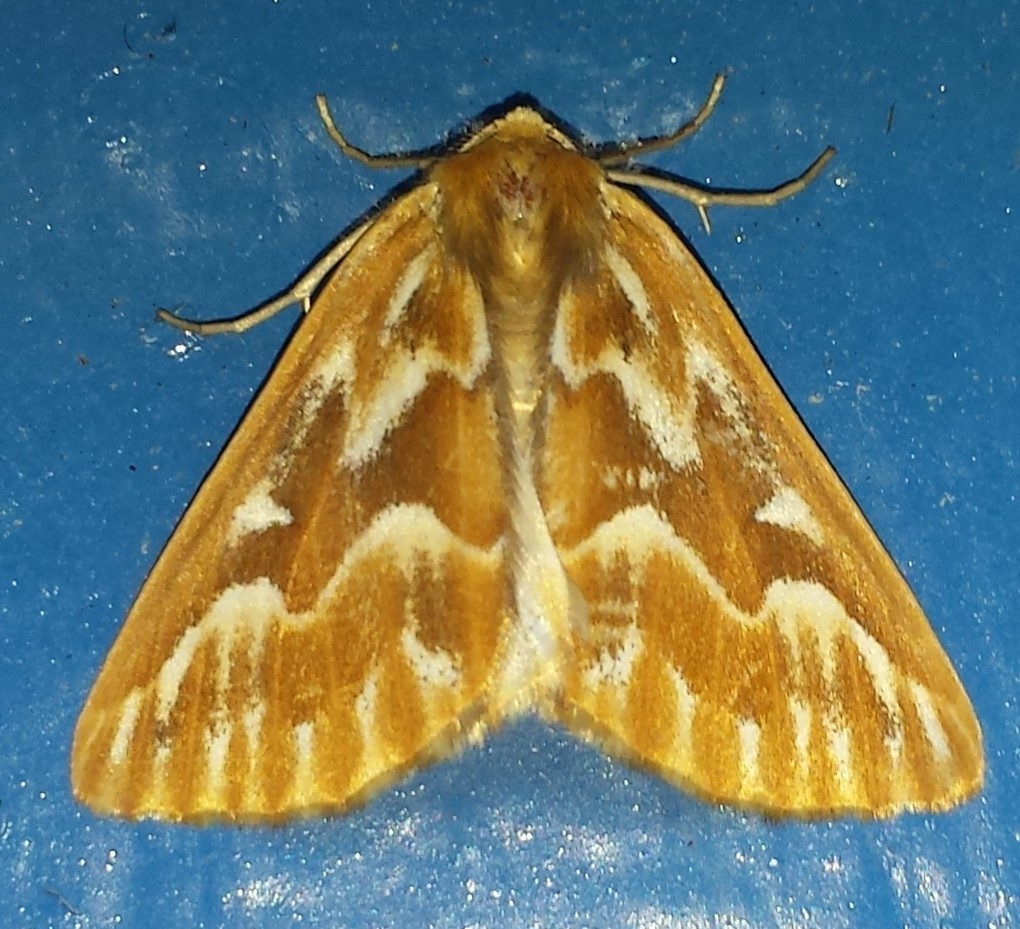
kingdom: Animalia
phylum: Arthropoda
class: Insecta
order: Lepidoptera
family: Geometridae
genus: Caripeta
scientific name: Caripeta piniata
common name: Northern pine looper moth
